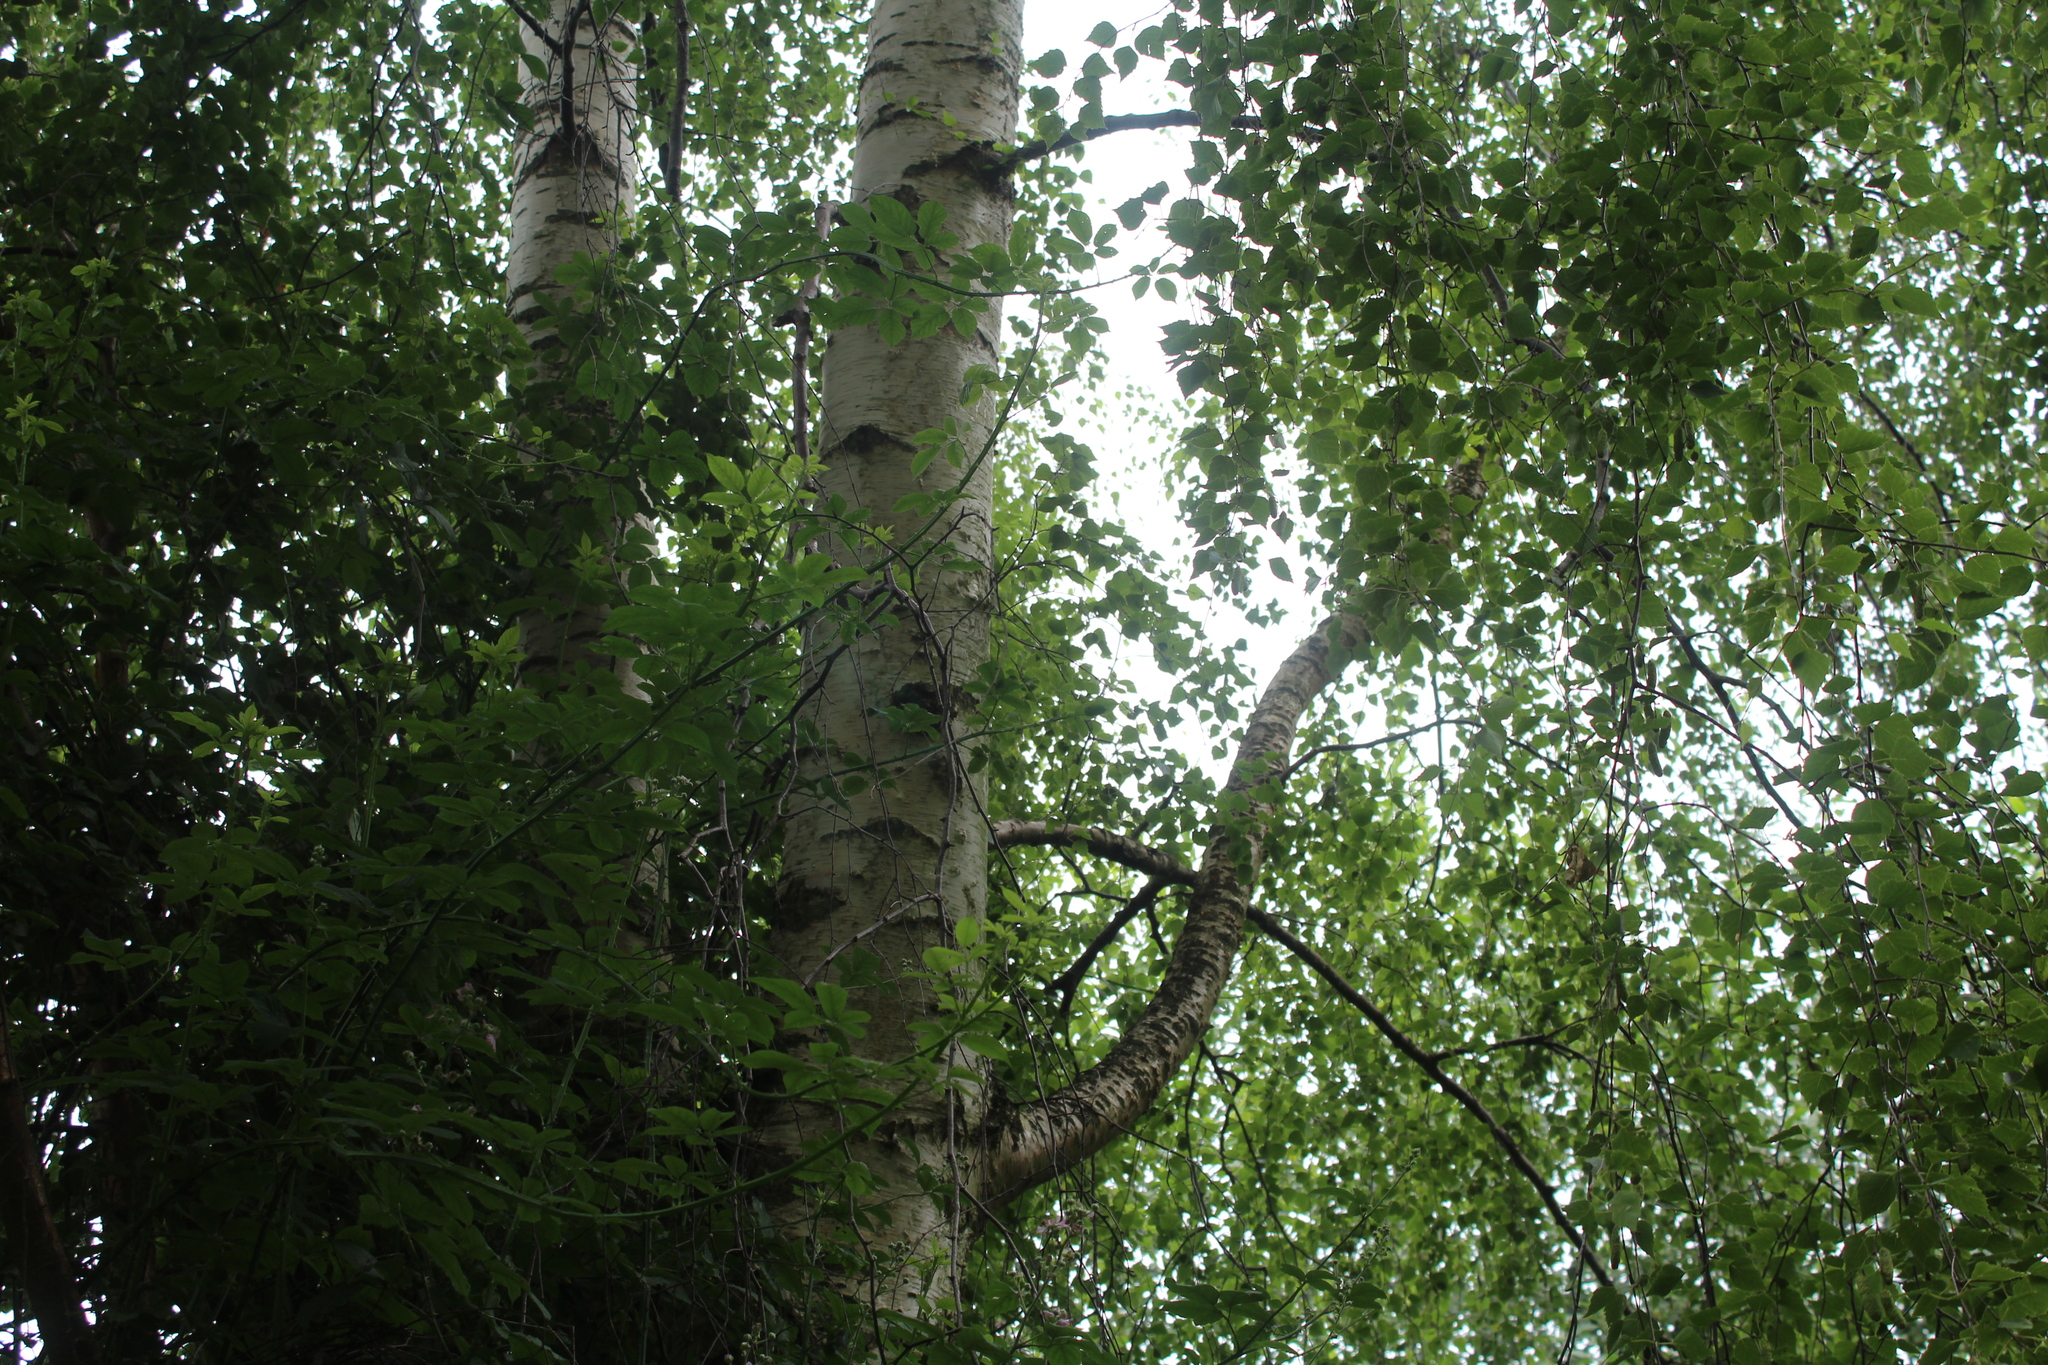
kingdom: Plantae
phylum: Tracheophyta
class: Magnoliopsida
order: Fagales
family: Betulaceae
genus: Betula
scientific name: Betula pendula
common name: Silver birch
